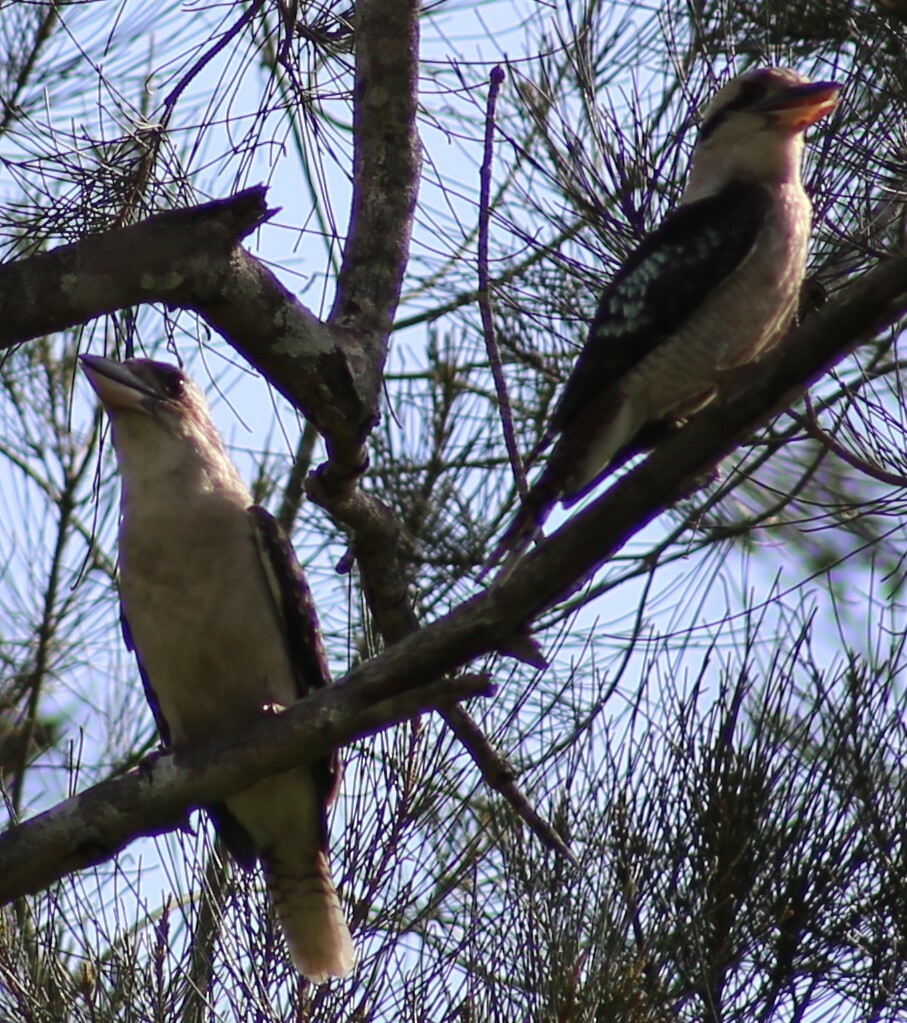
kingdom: Animalia
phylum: Chordata
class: Aves
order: Coraciiformes
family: Alcedinidae
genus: Dacelo
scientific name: Dacelo novaeguineae
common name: Laughing kookaburra
